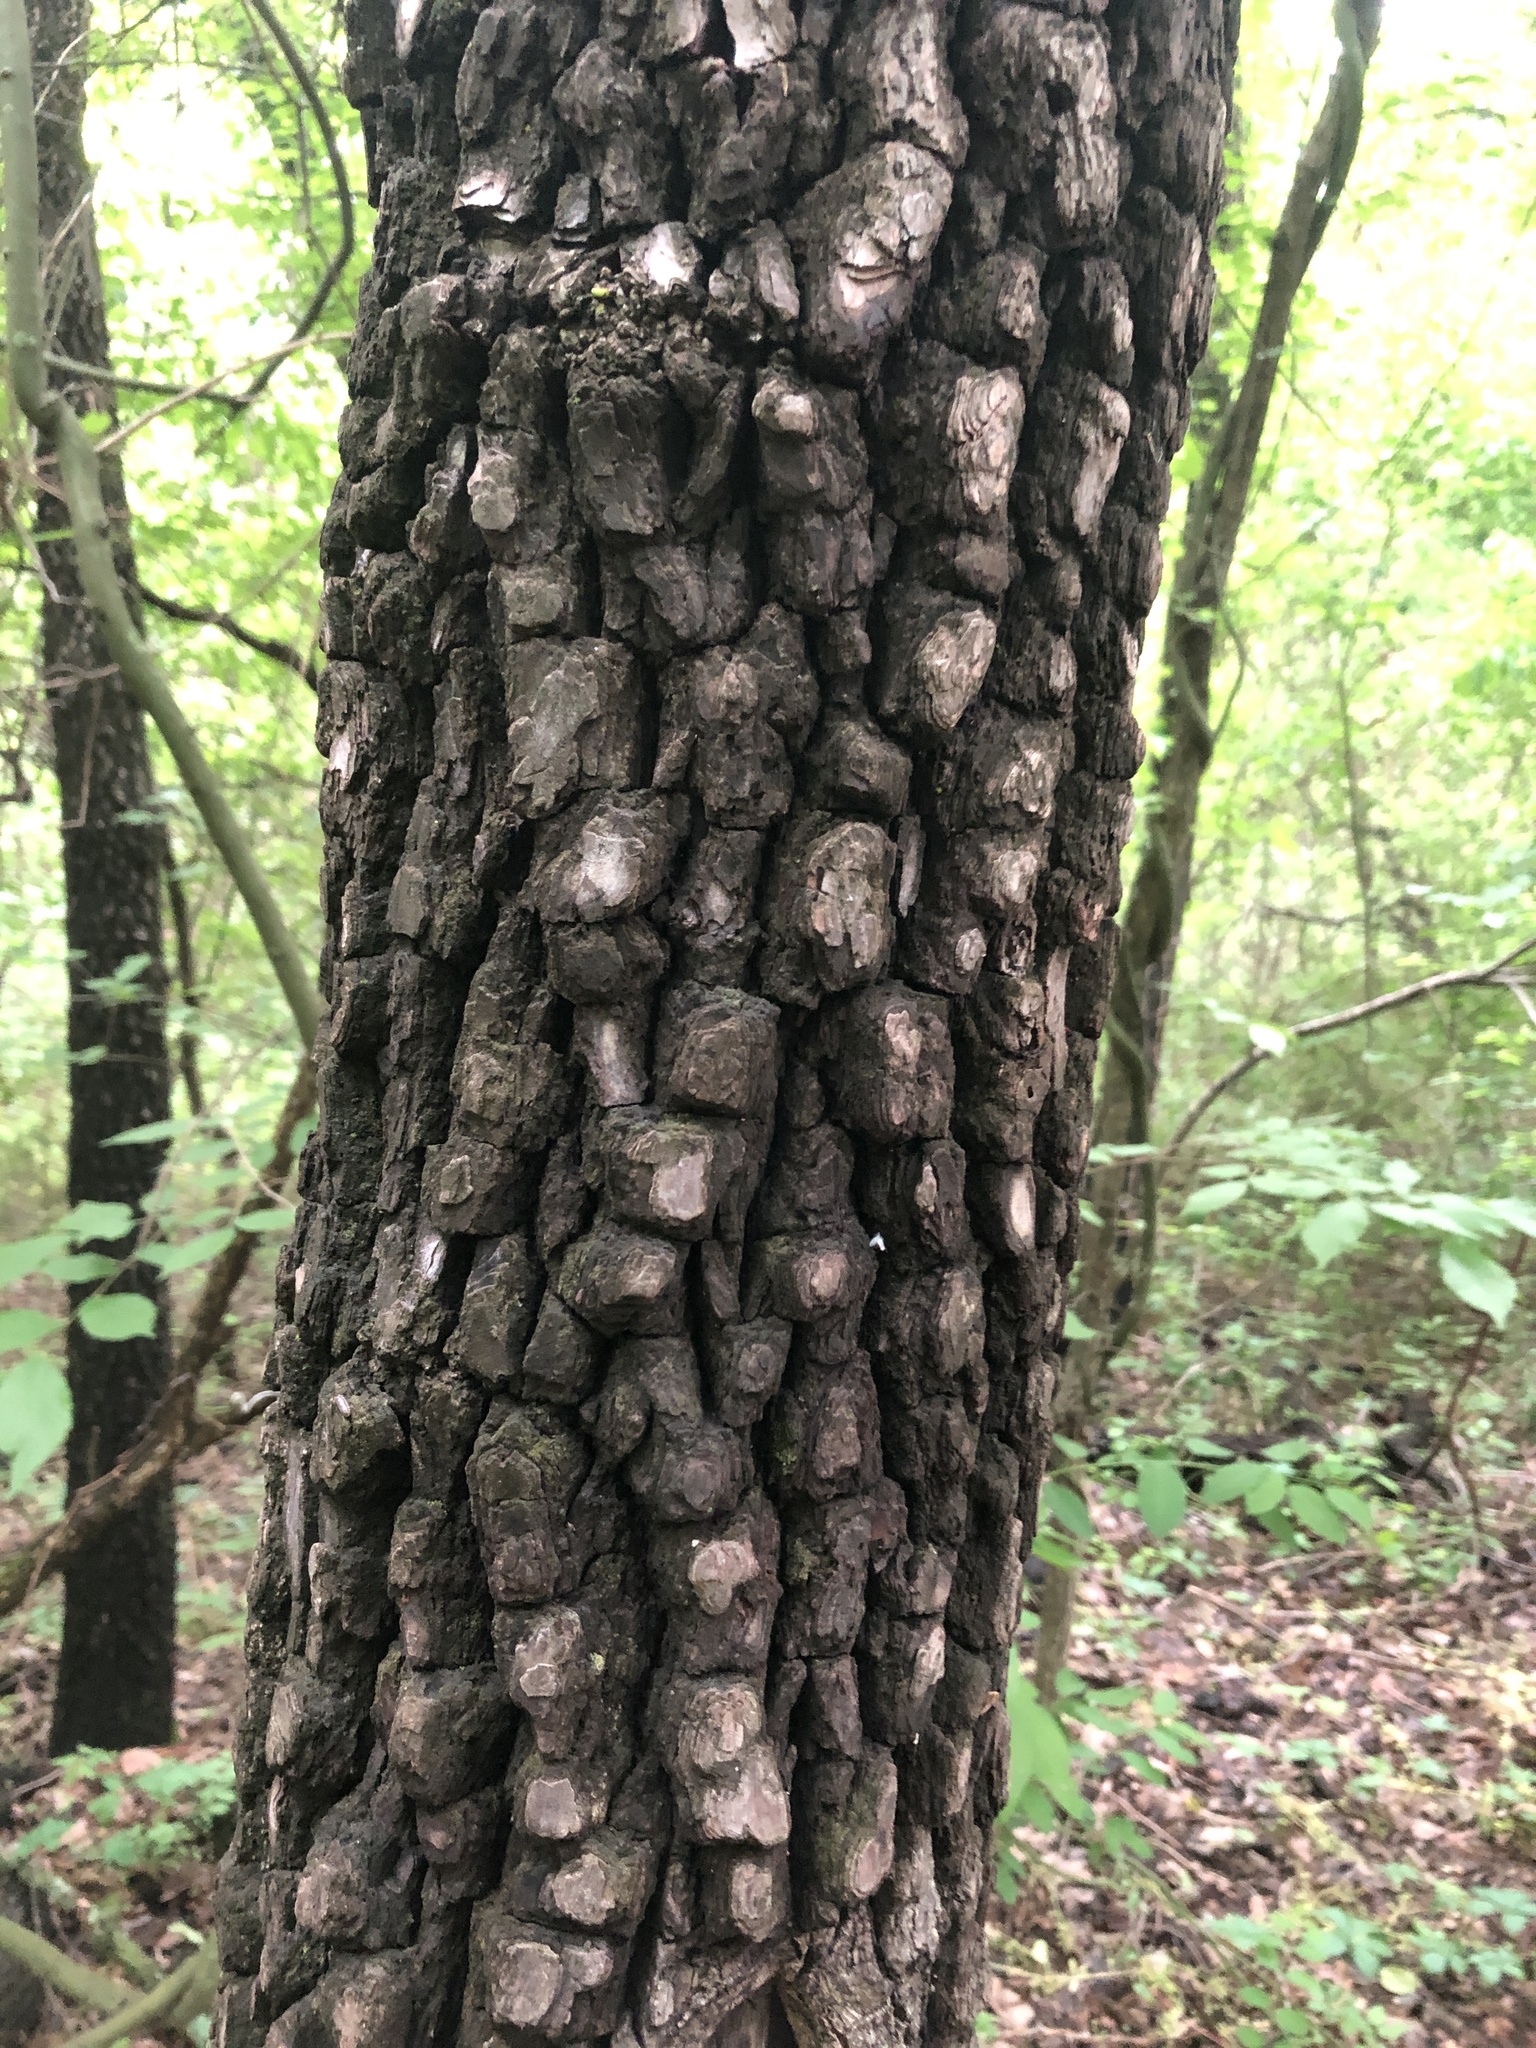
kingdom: Plantae
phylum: Tracheophyta
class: Magnoliopsida
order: Ericales
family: Ebenaceae
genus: Diospyros
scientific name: Diospyros virginiana
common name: Persimmon
